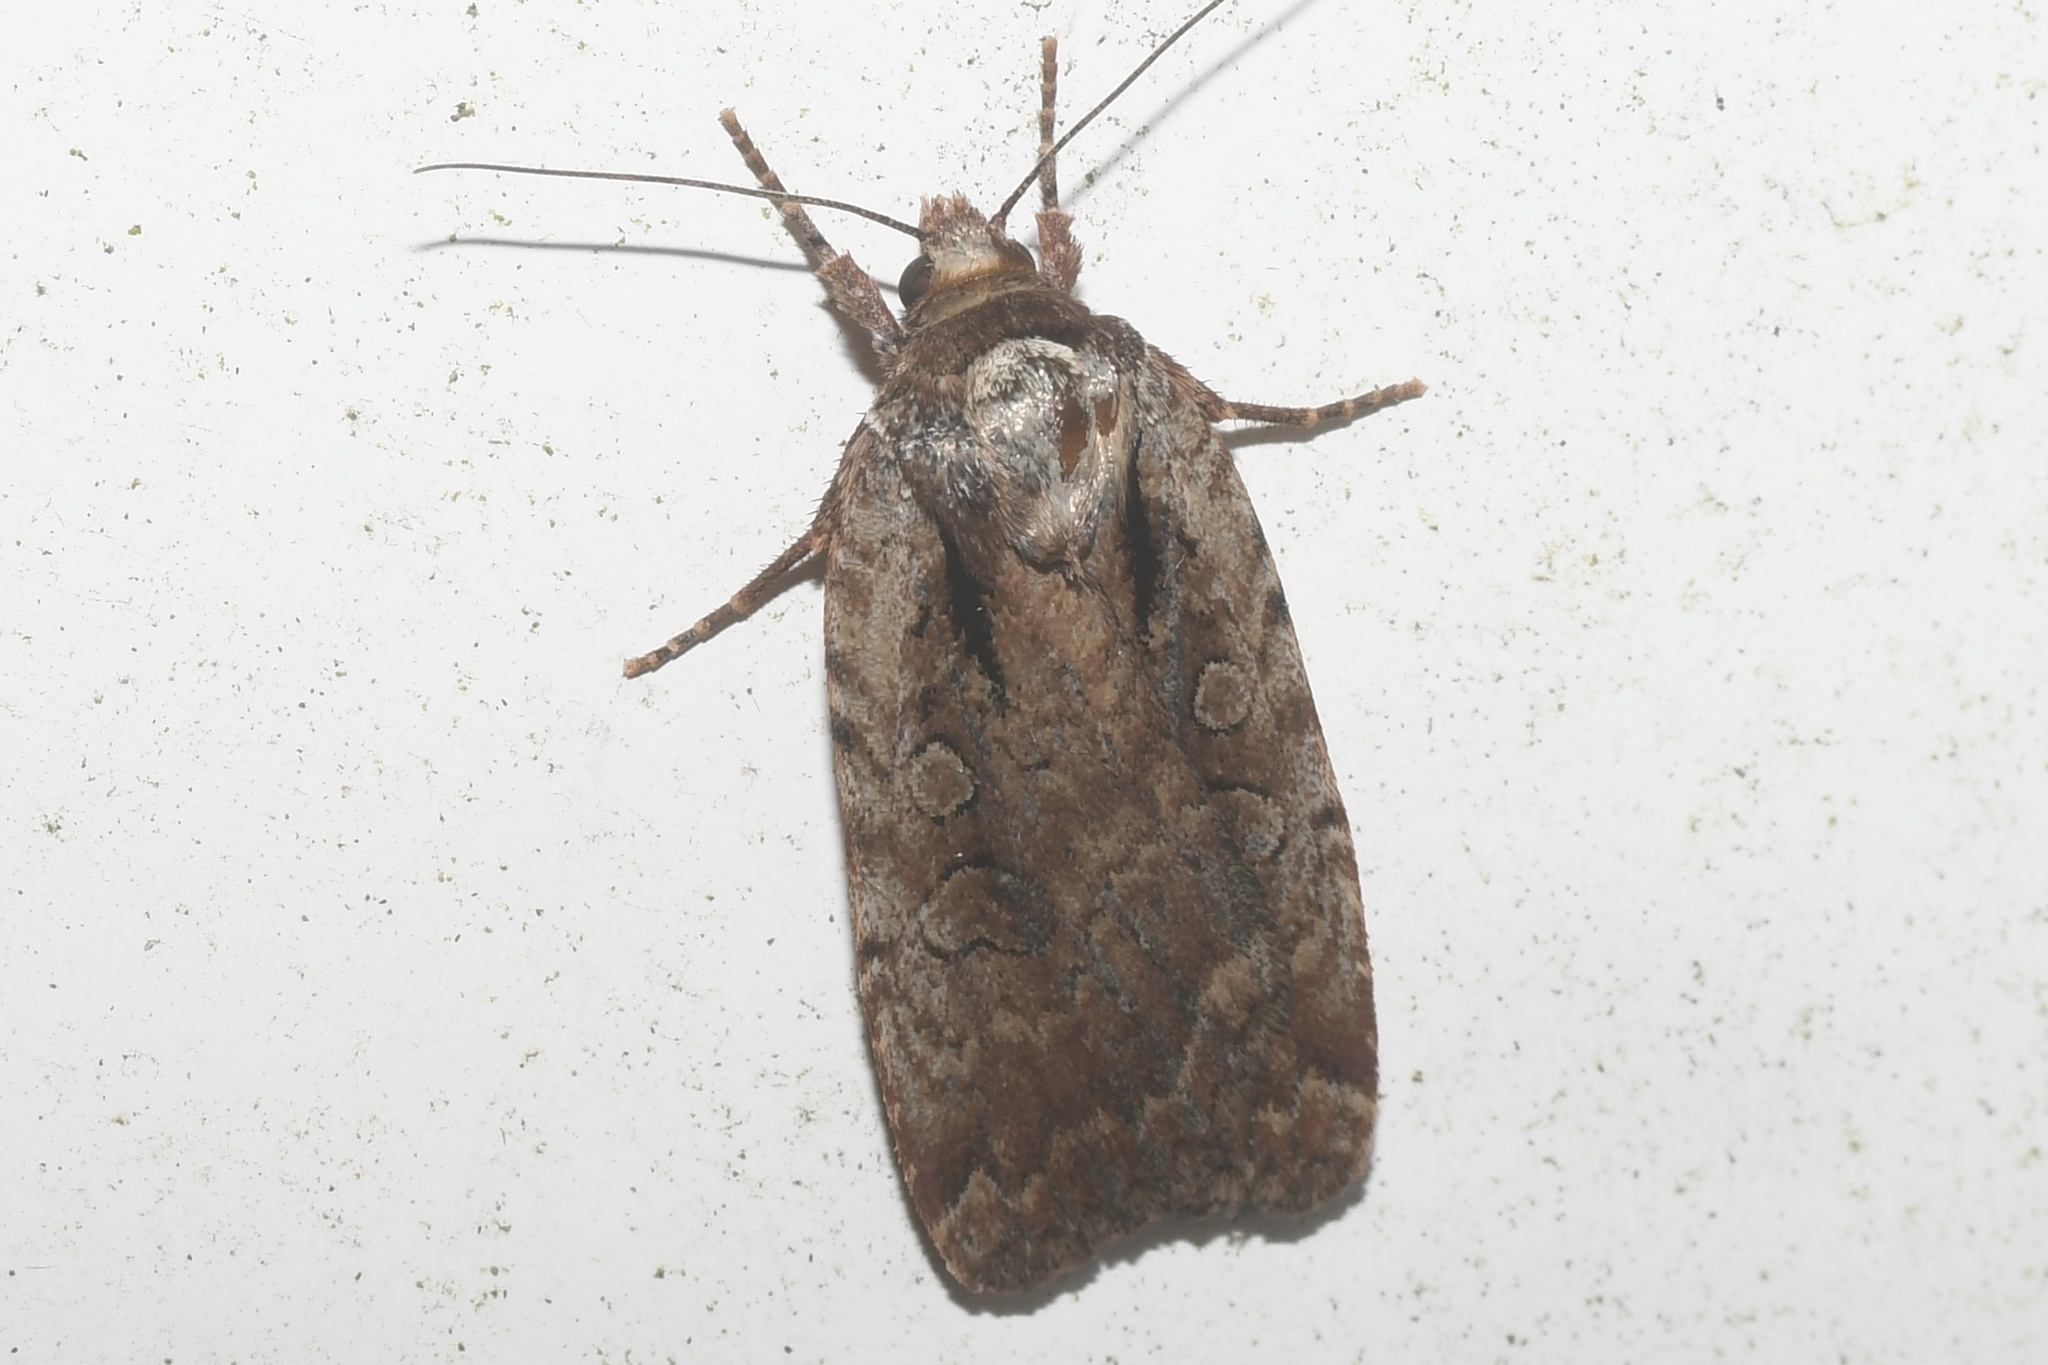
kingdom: Animalia
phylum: Arthropoda
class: Insecta
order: Lepidoptera
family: Noctuidae
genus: Eueretagrotis
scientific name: Eueretagrotis attentus
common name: Attentive dart
